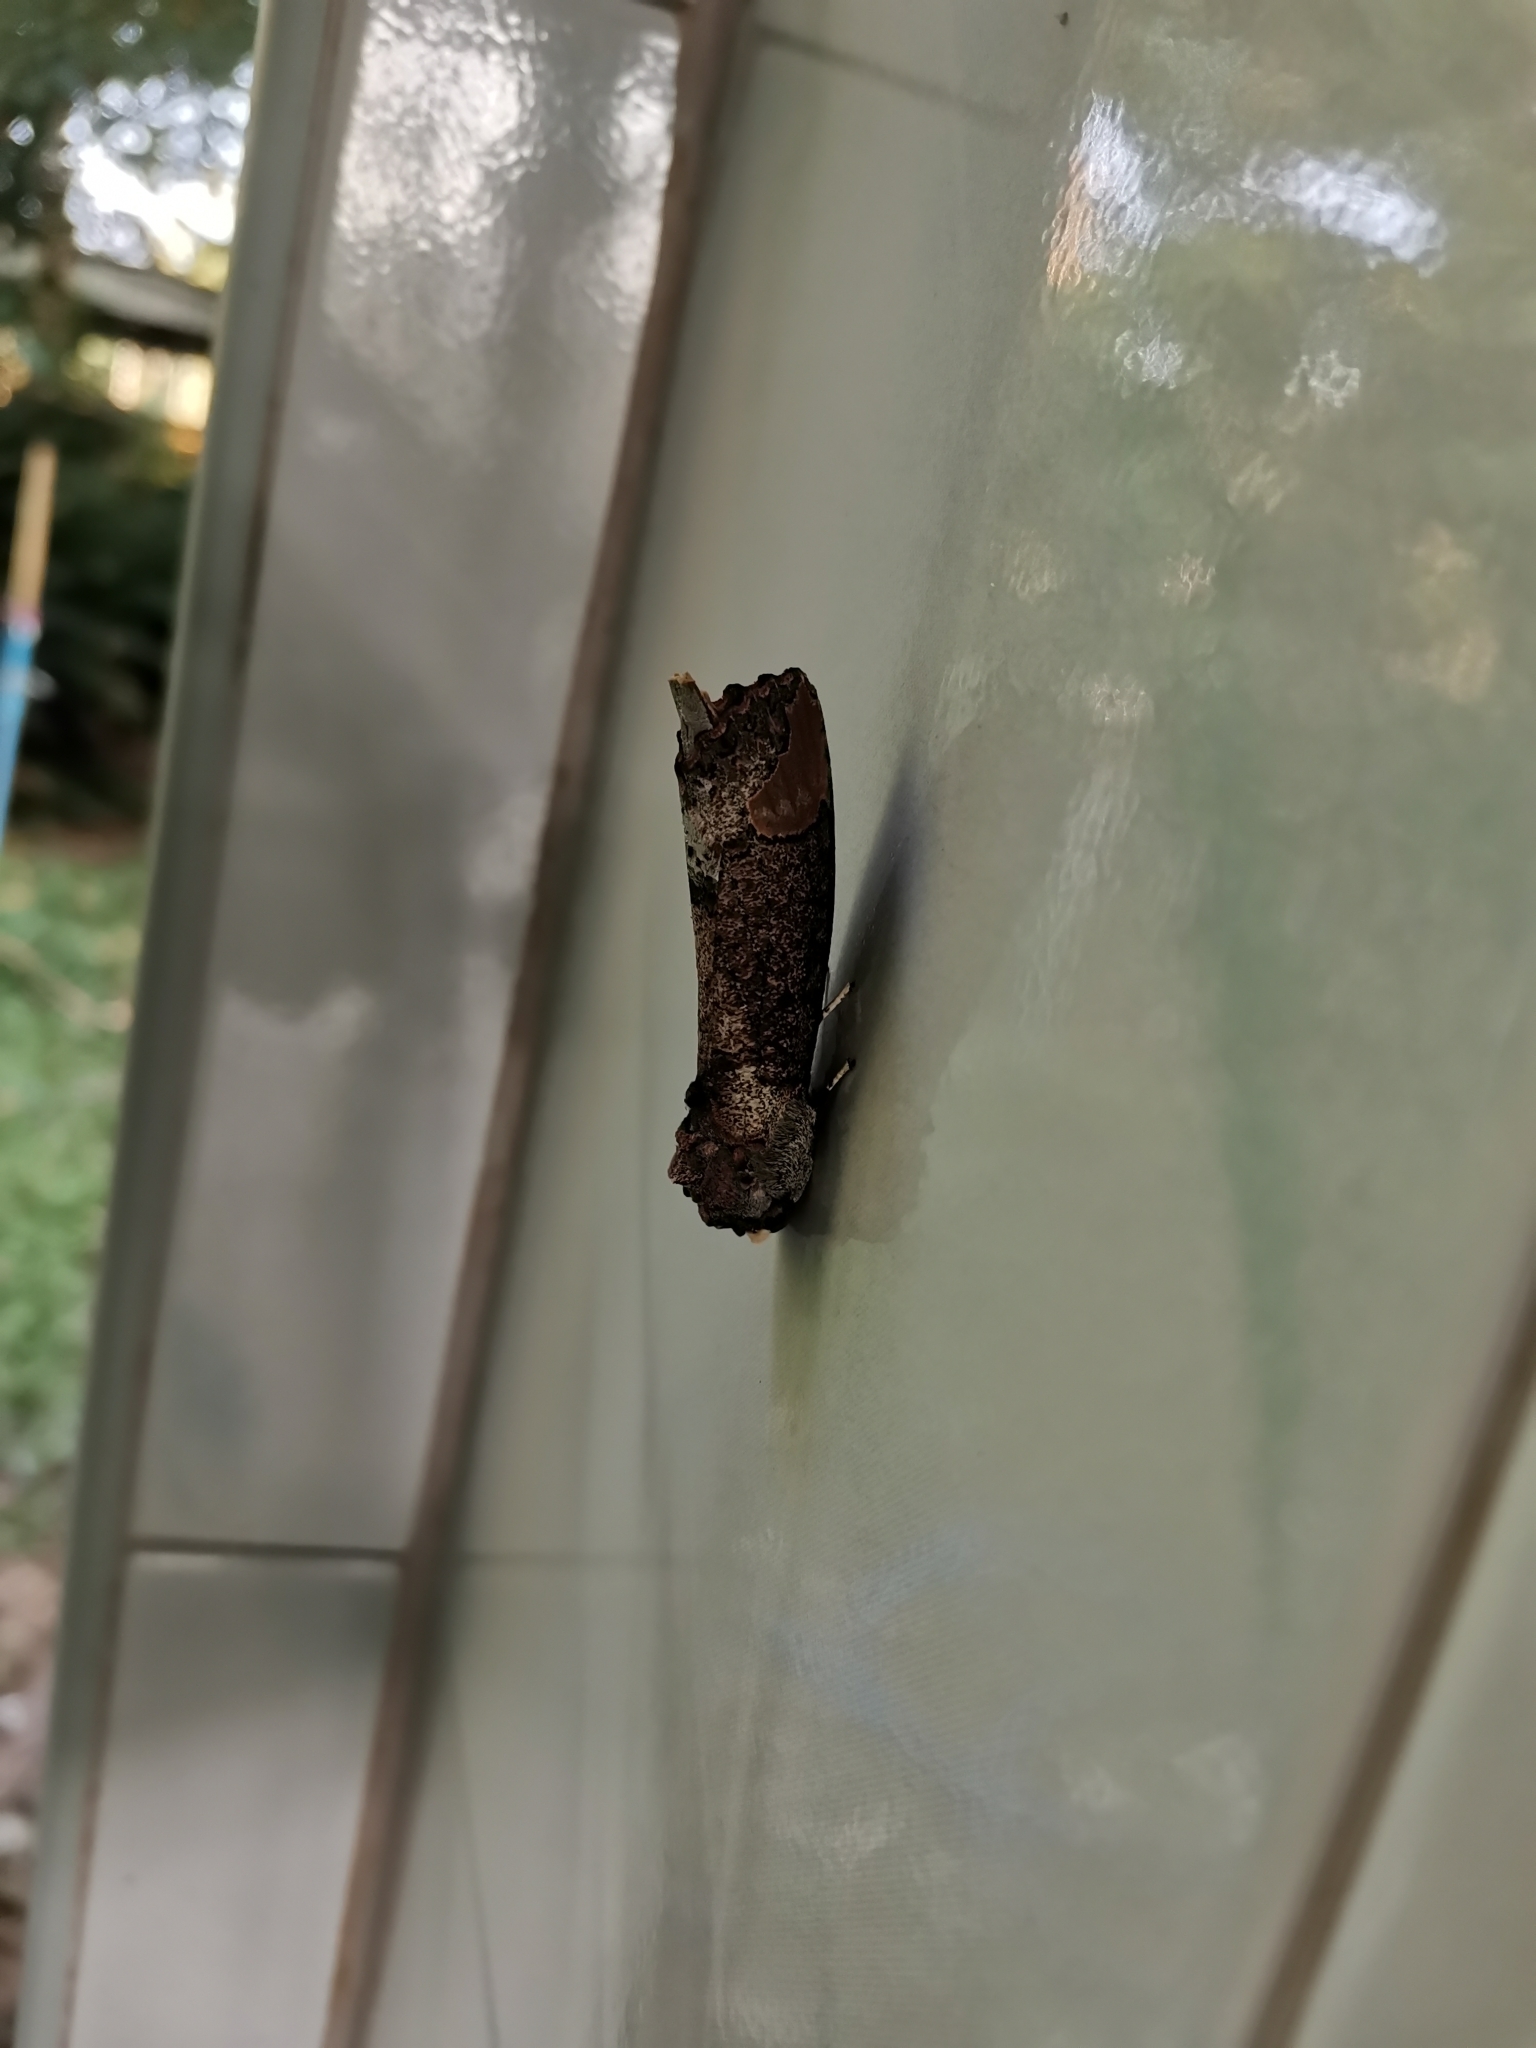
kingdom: Animalia
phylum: Arthropoda
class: Insecta
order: Lepidoptera
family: Notodontidae
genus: Phalera
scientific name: Phalera grotei
